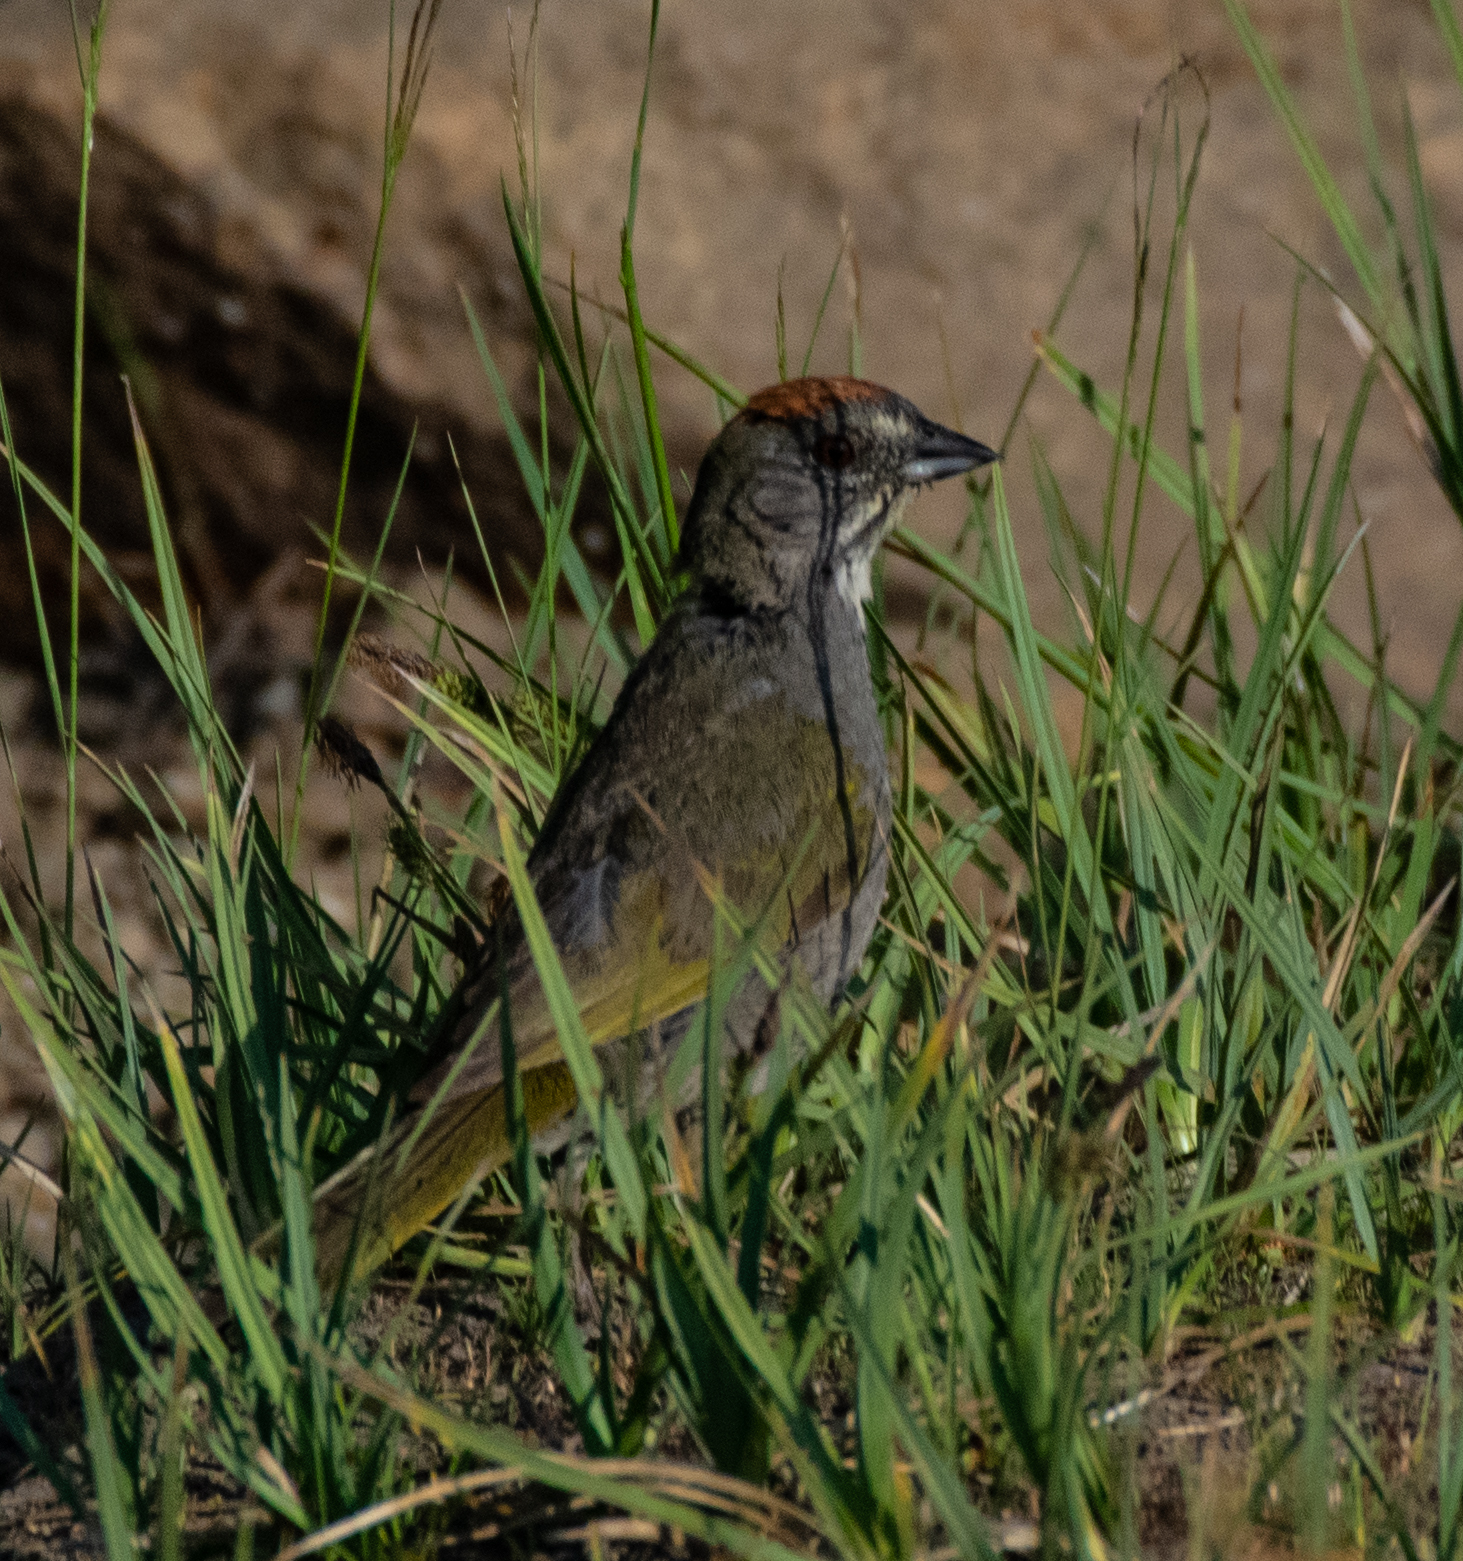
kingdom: Animalia
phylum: Chordata
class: Aves
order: Passeriformes
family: Passerellidae
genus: Pipilo
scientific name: Pipilo chlorurus
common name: Green-tailed towhee
